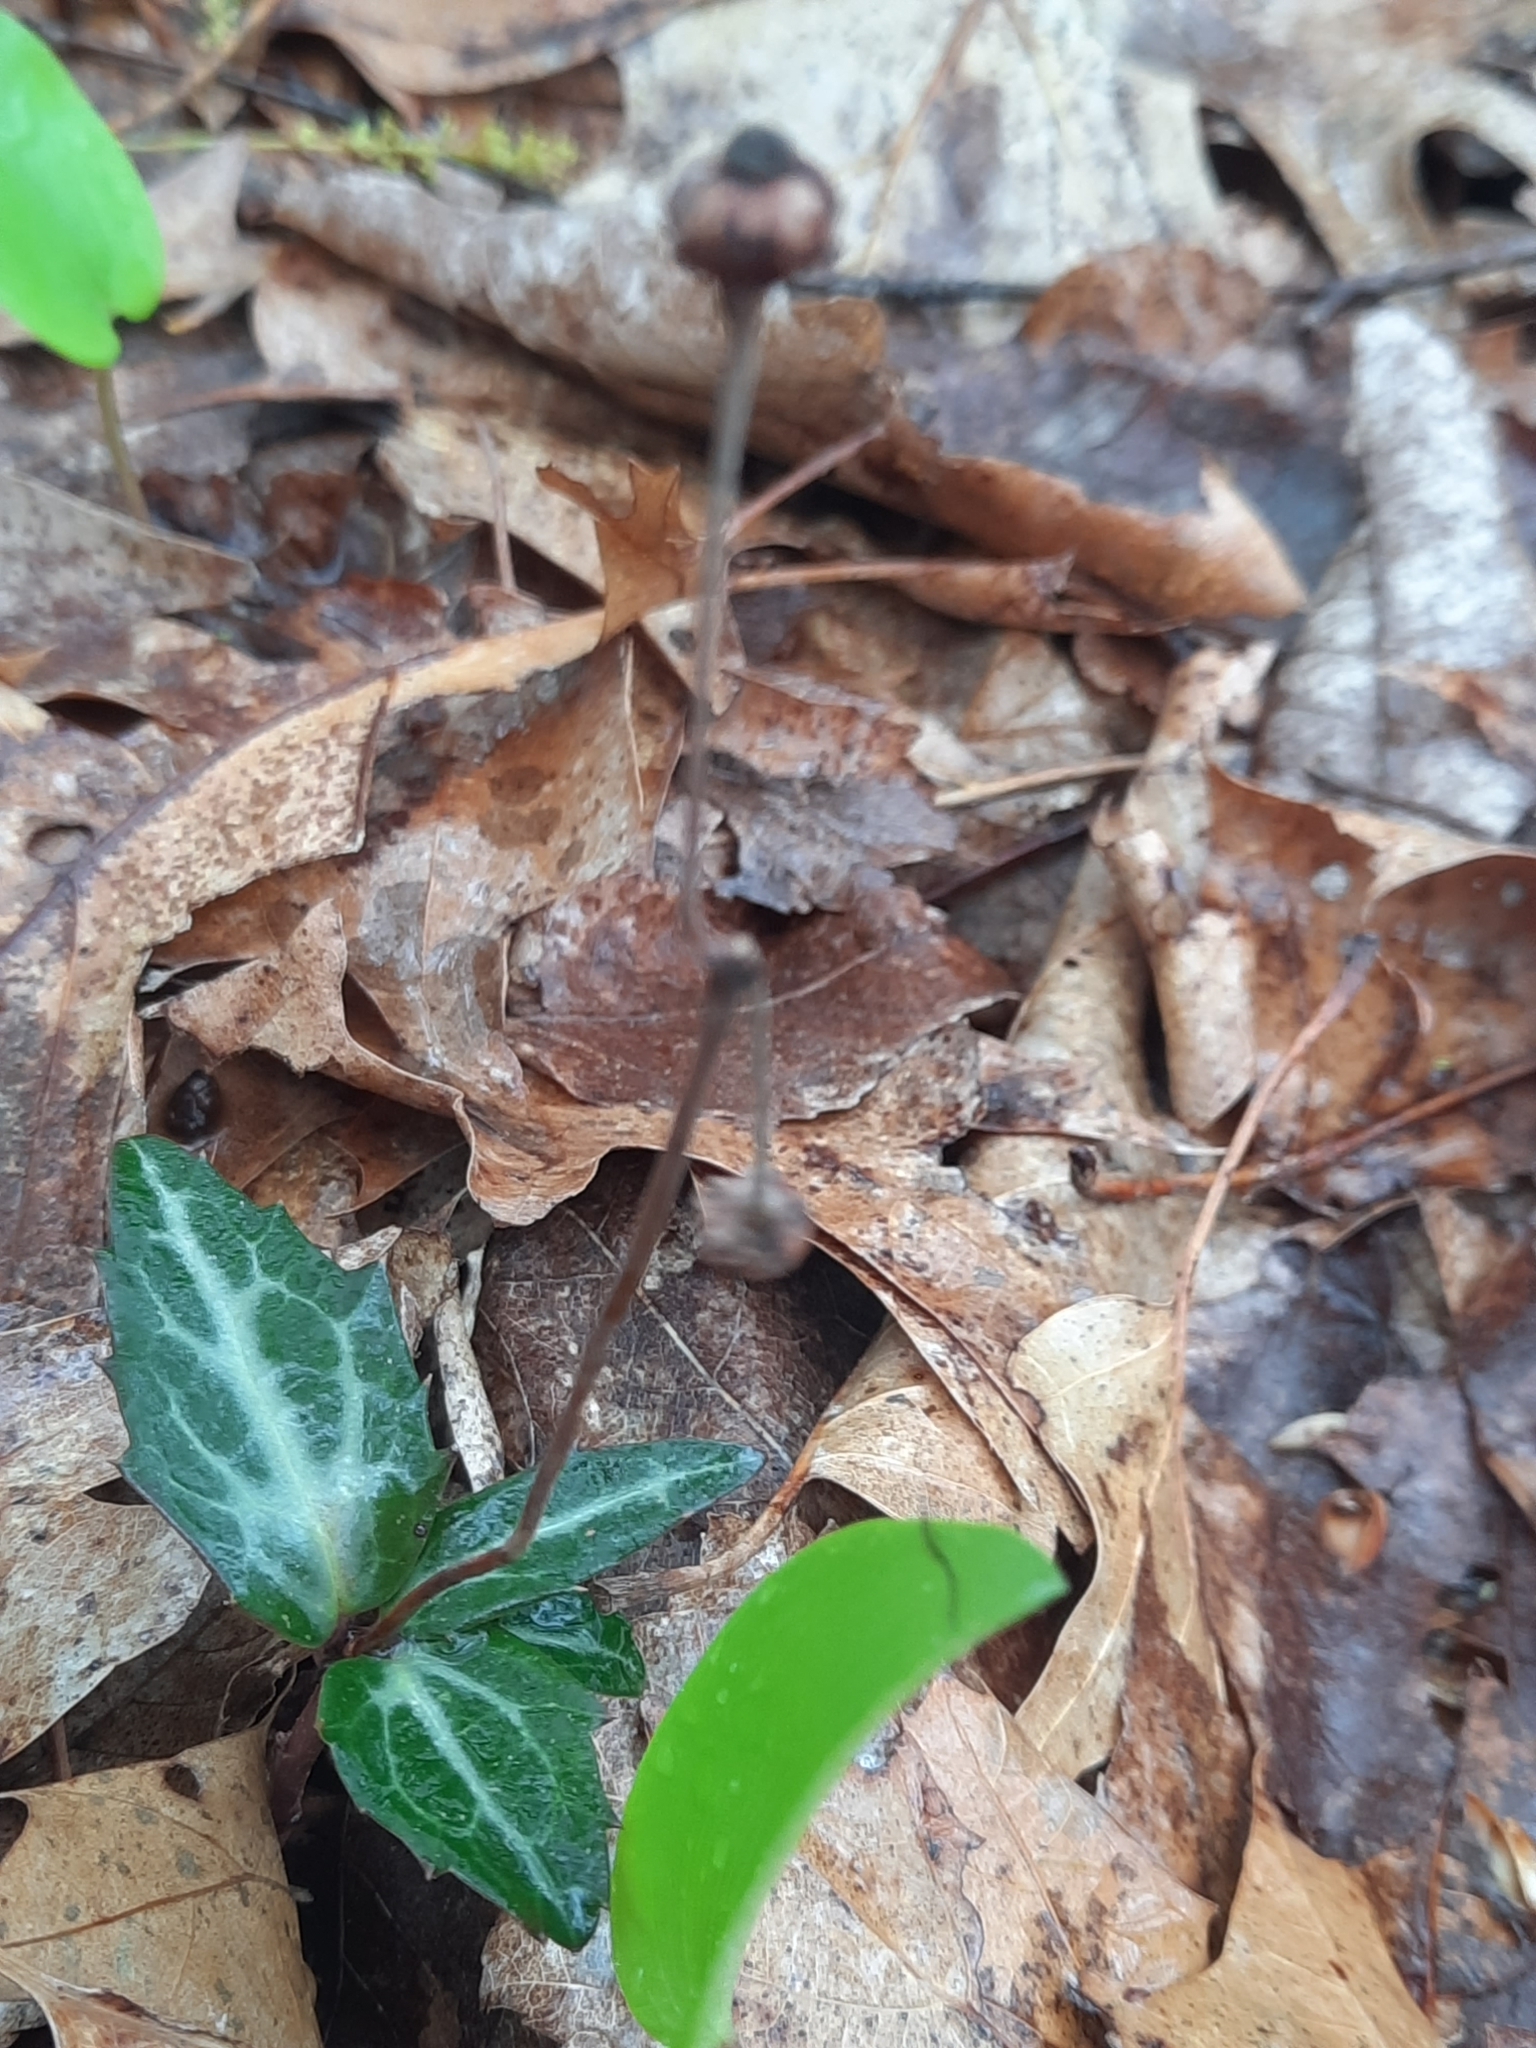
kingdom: Plantae
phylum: Tracheophyta
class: Magnoliopsida
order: Ericales
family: Ericaceae
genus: Chimaphila
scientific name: Chimaphila maculata
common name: Spotted pipsissewa
